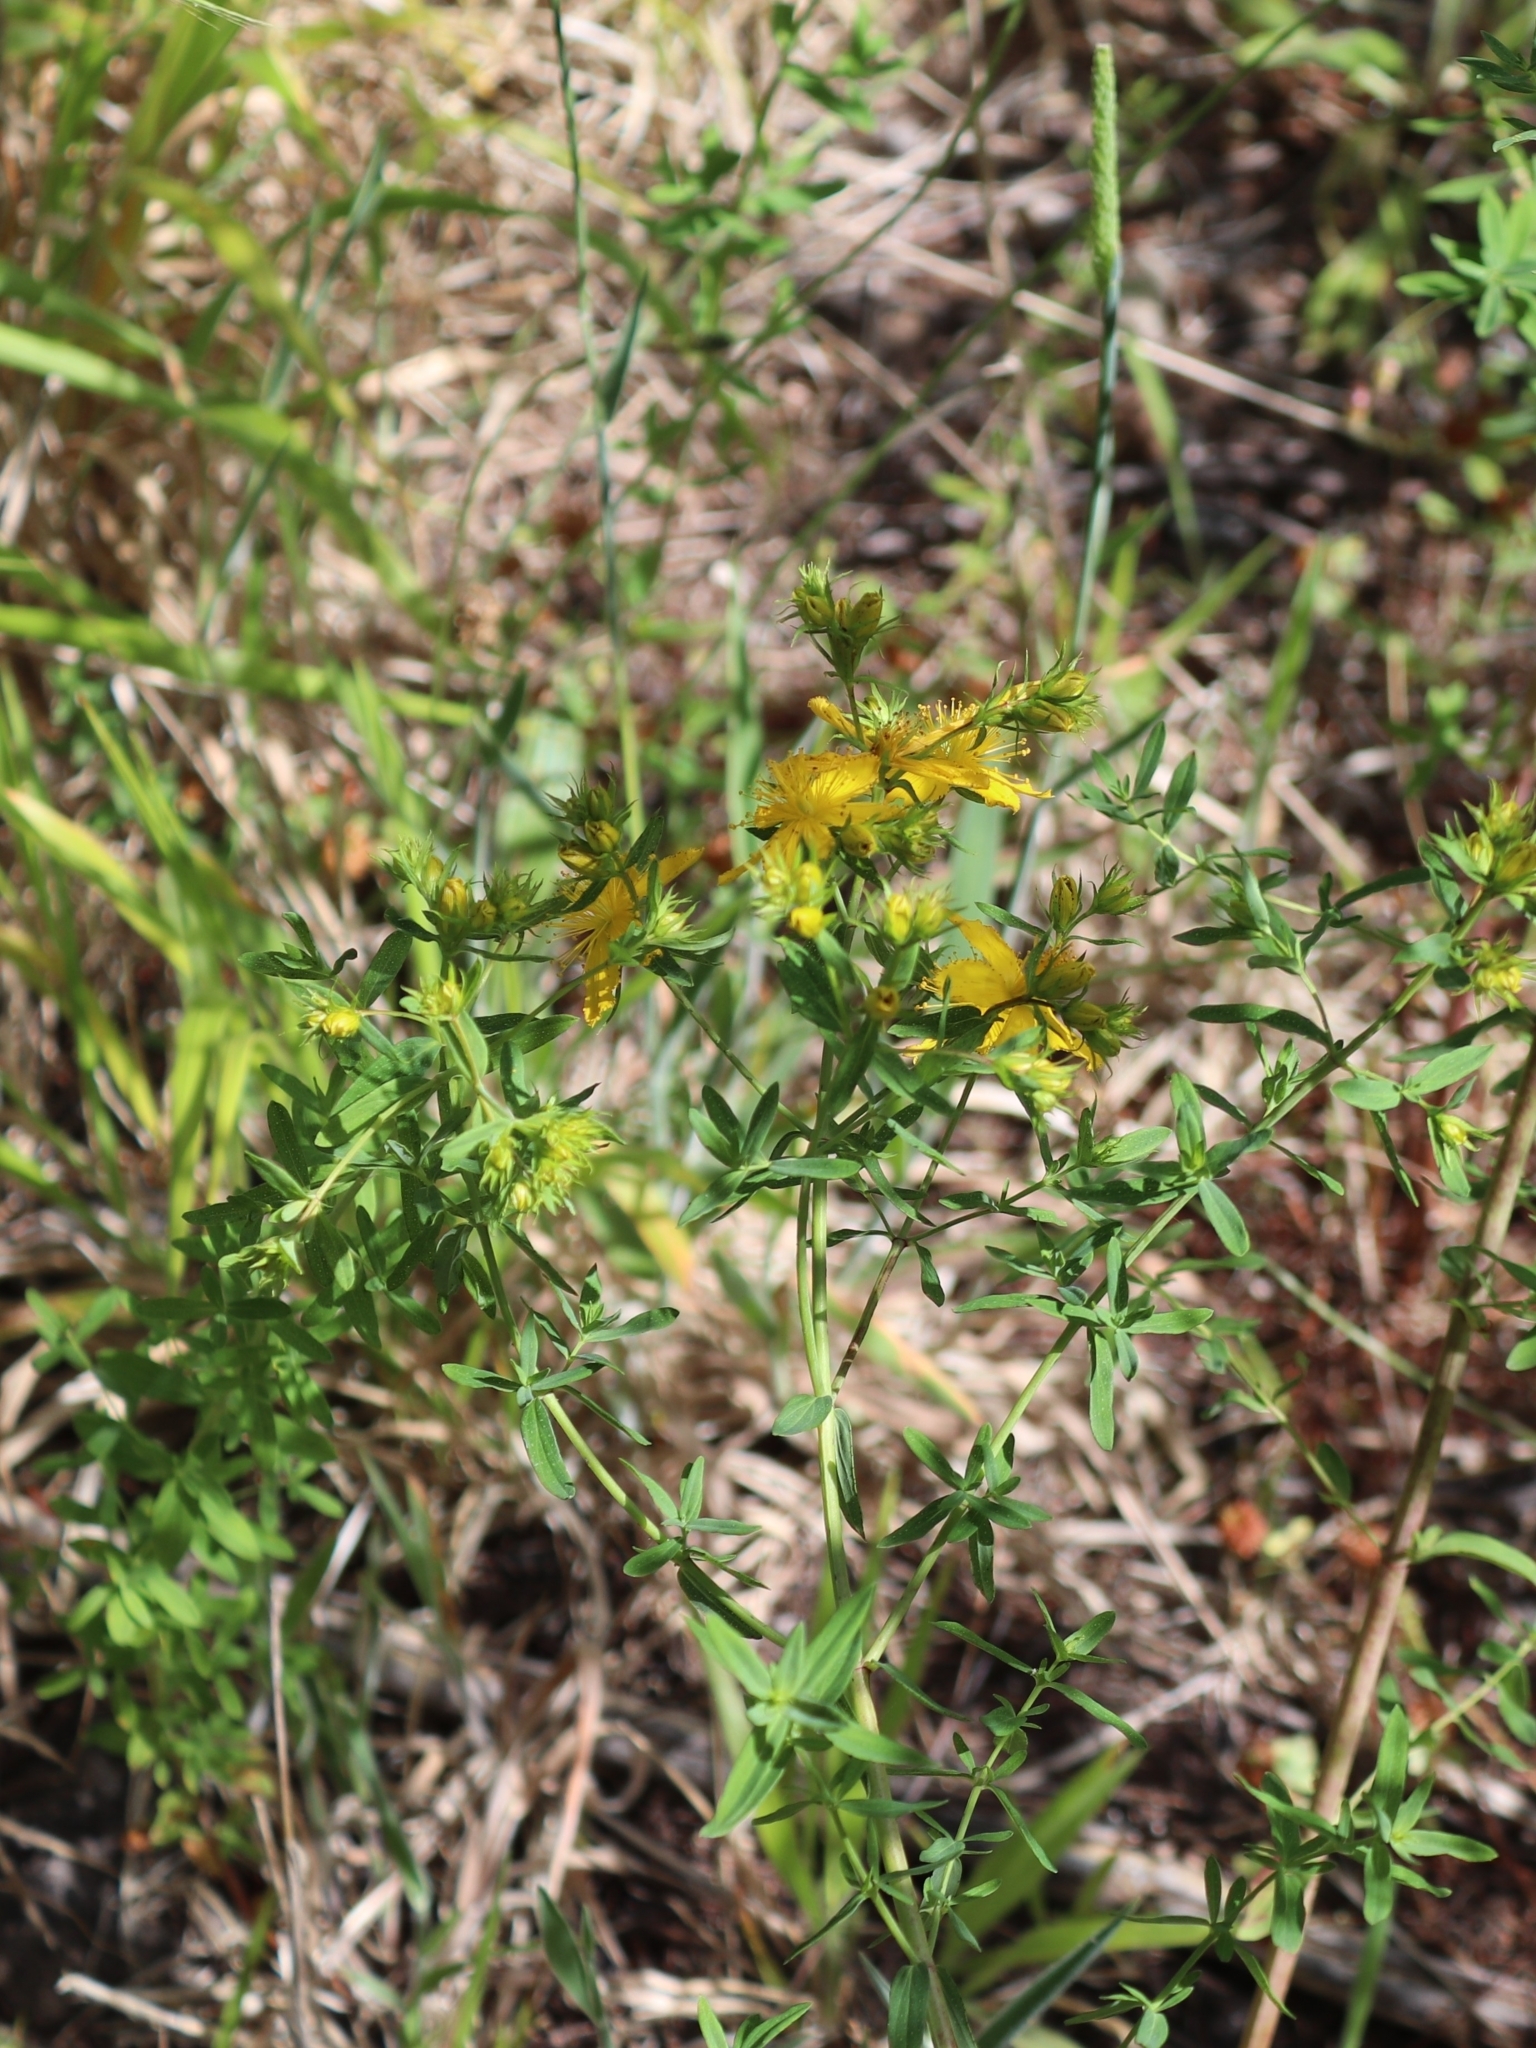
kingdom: Plantae
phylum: Tracheophyta
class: Magnoliopsida
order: Malpighiales
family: Hypericaceae
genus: Hypericum
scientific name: Hypericum perforatum
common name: Common st. johnswort
